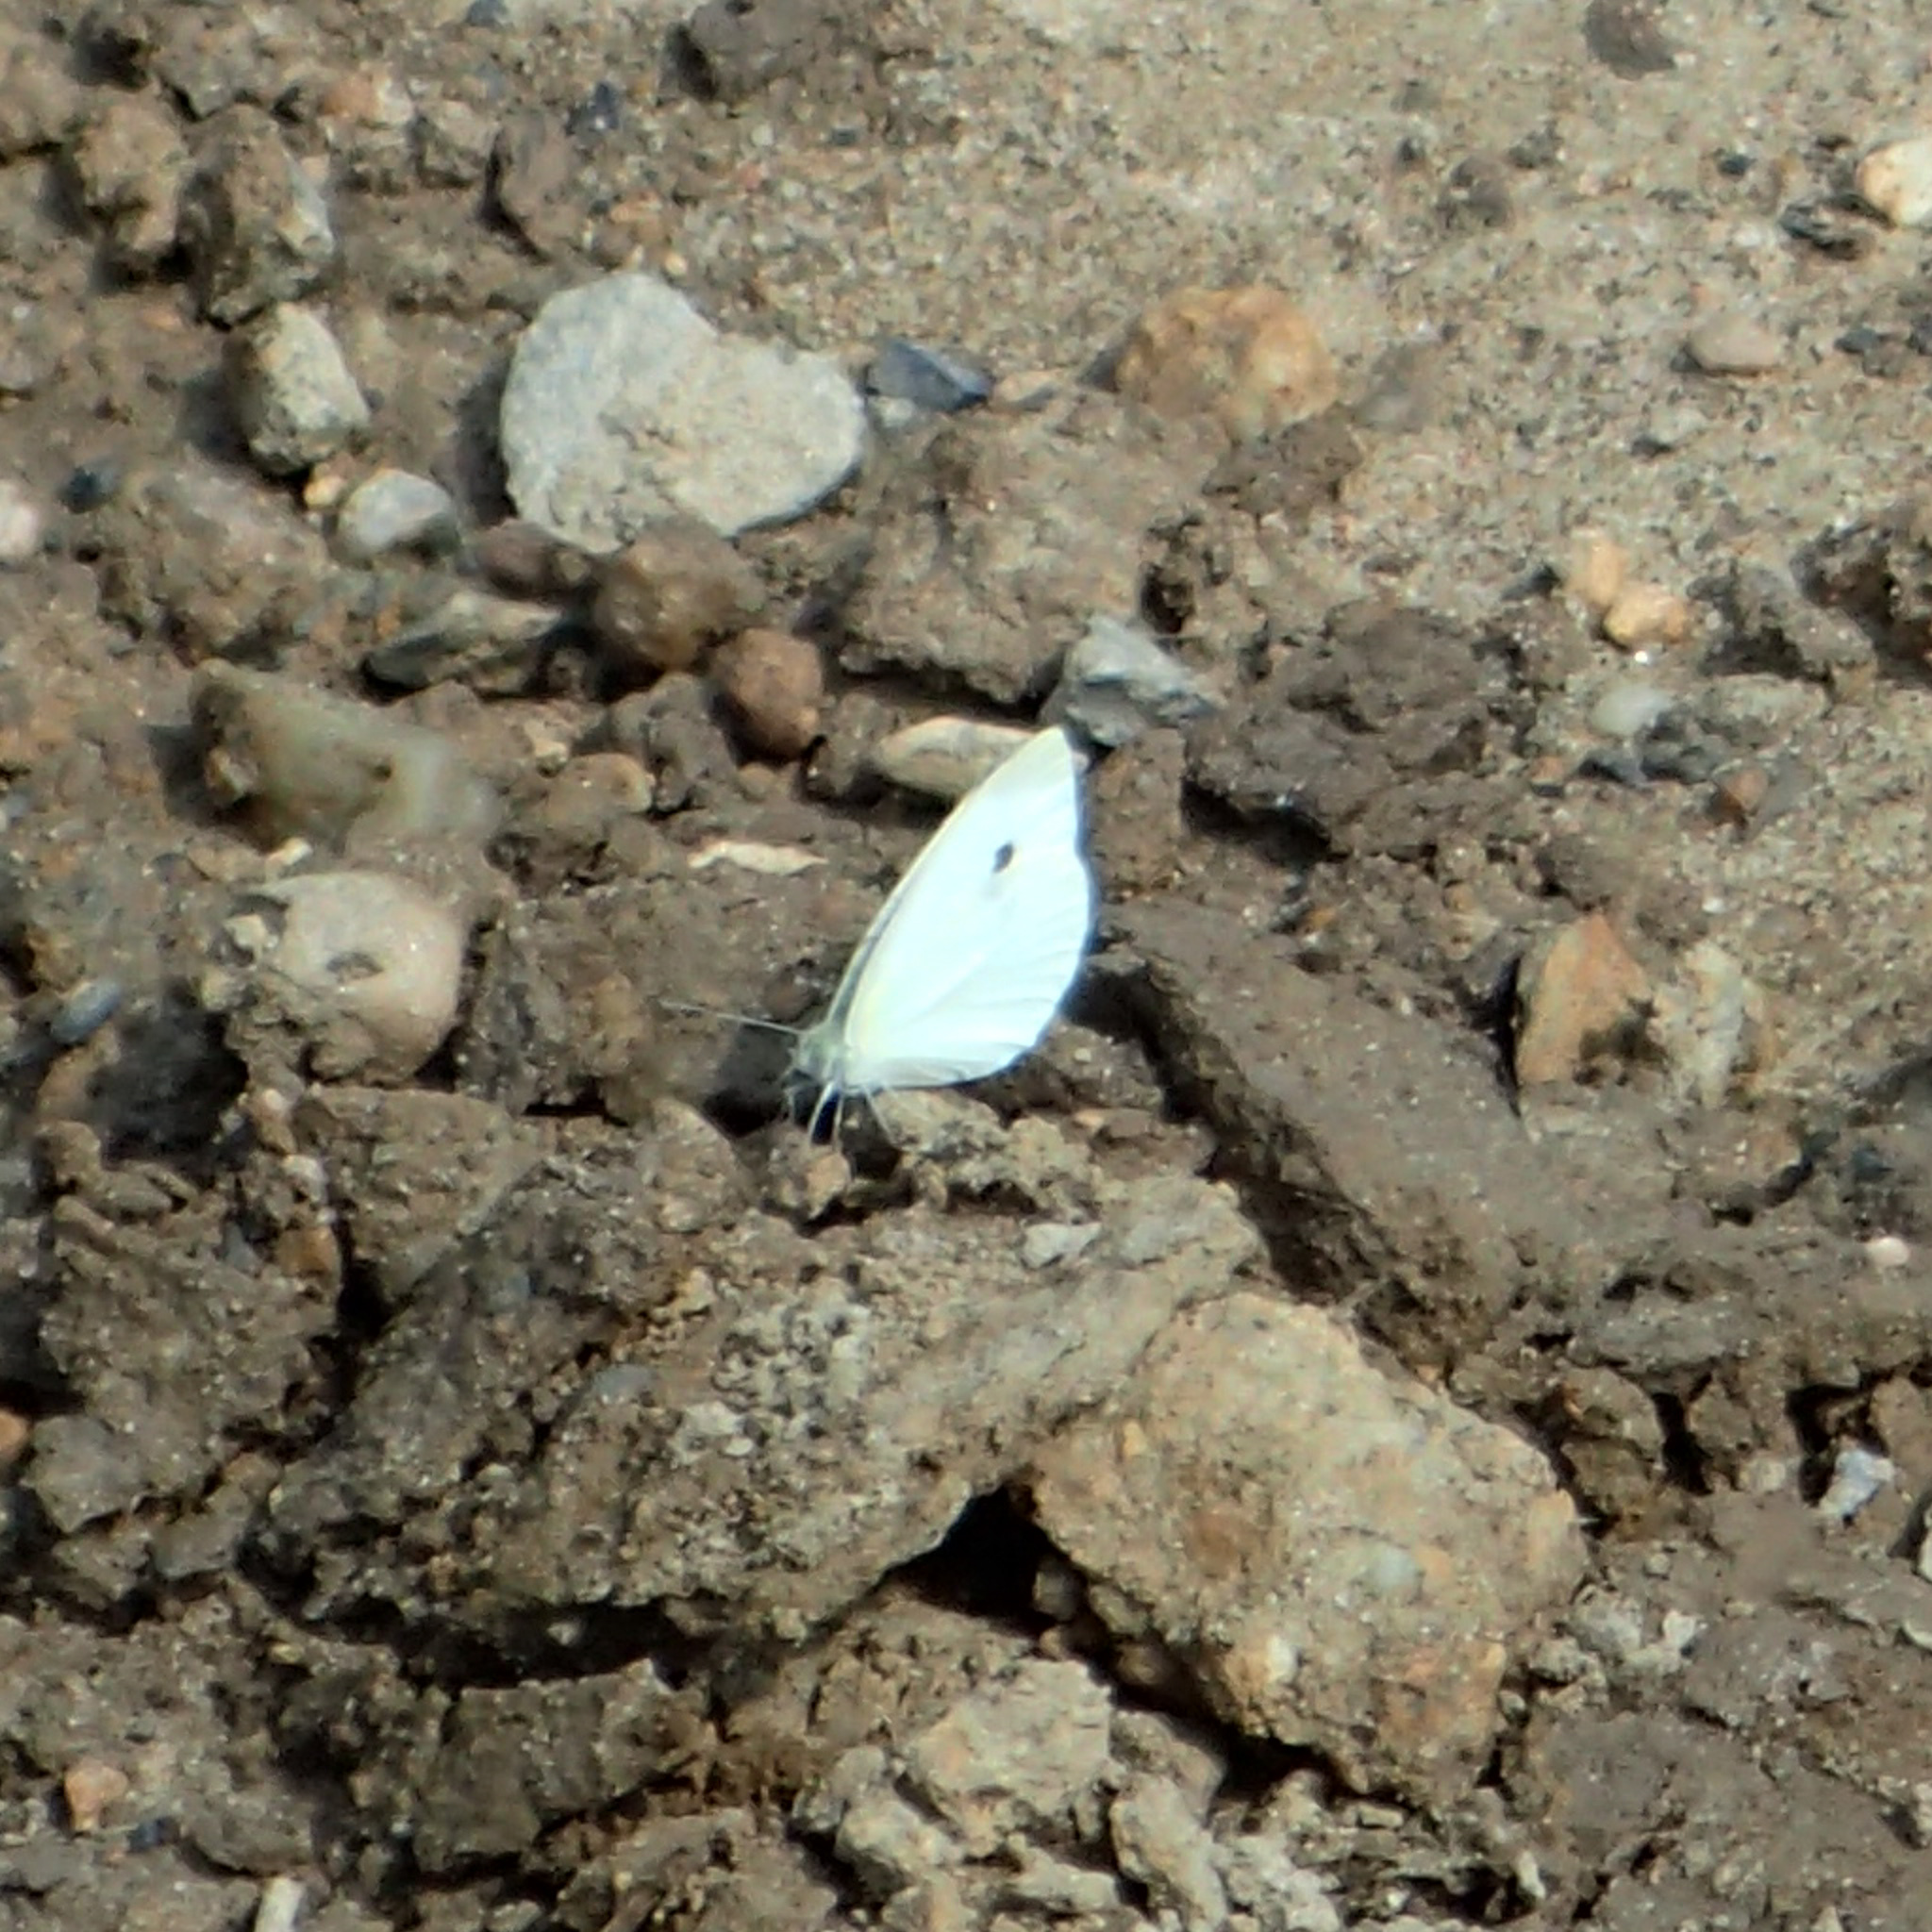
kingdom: Animalia
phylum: Arthropoda
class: Insecta
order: Lepidoptera
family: Pieridae
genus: Pieris
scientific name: Pieris rapae
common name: Small white
